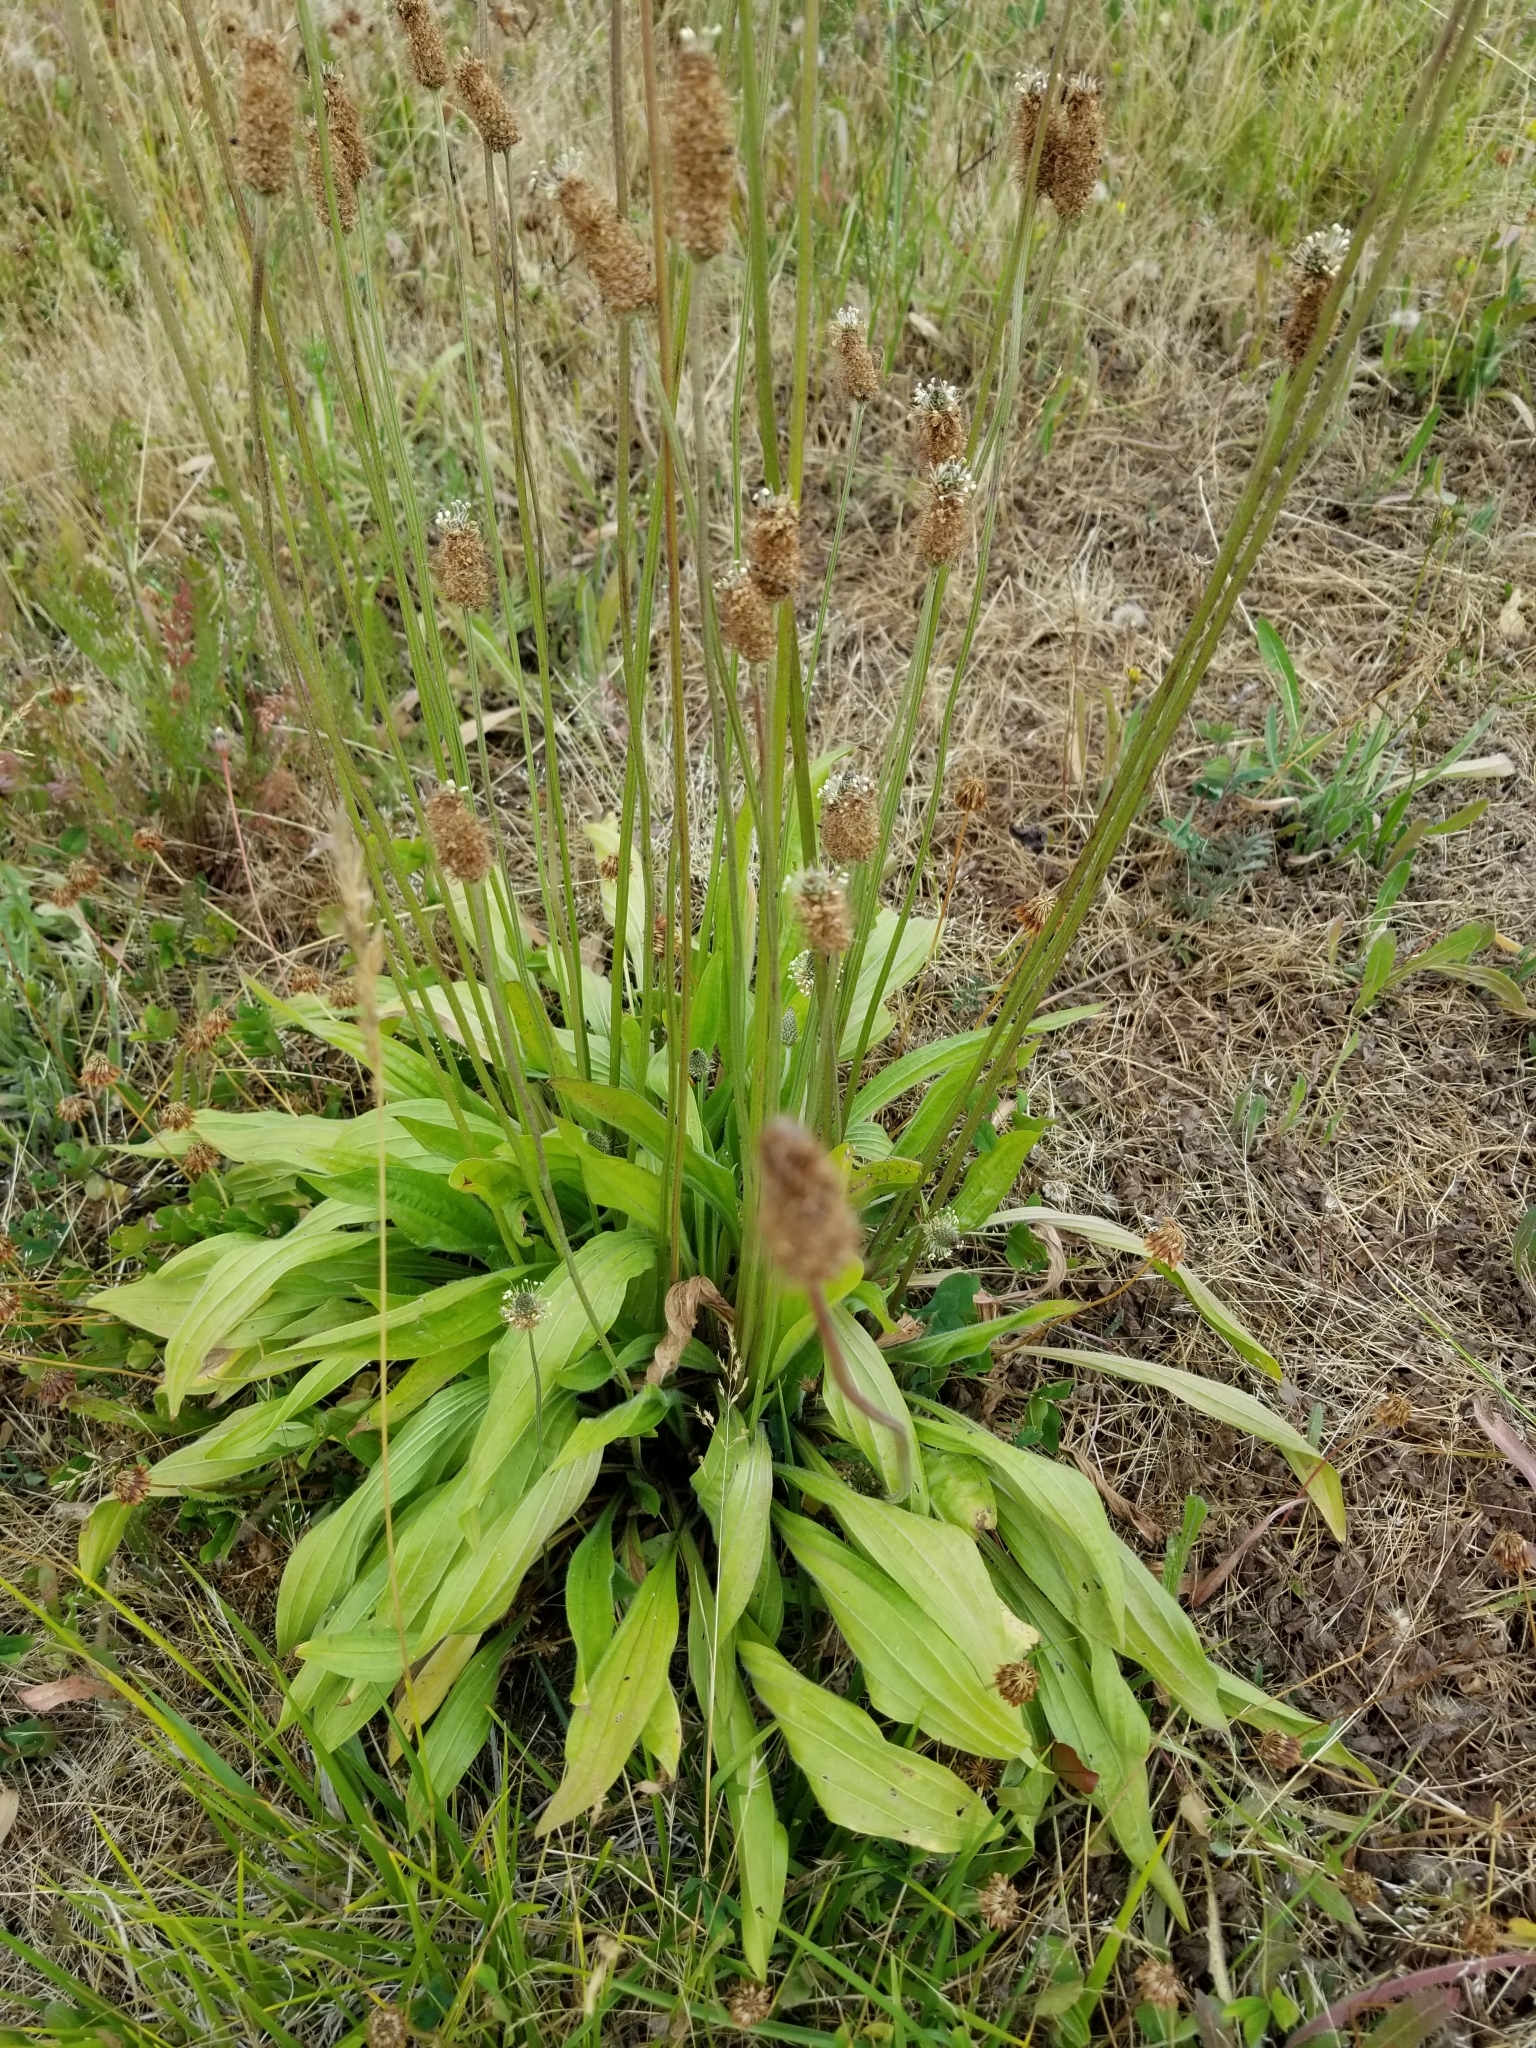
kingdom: Plantae
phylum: Tracheophyta
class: Magnoliopsida
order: Lamiales
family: Plantaginaceae
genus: Plantago
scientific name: Plantago lanceolata
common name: Ribwort plantain
